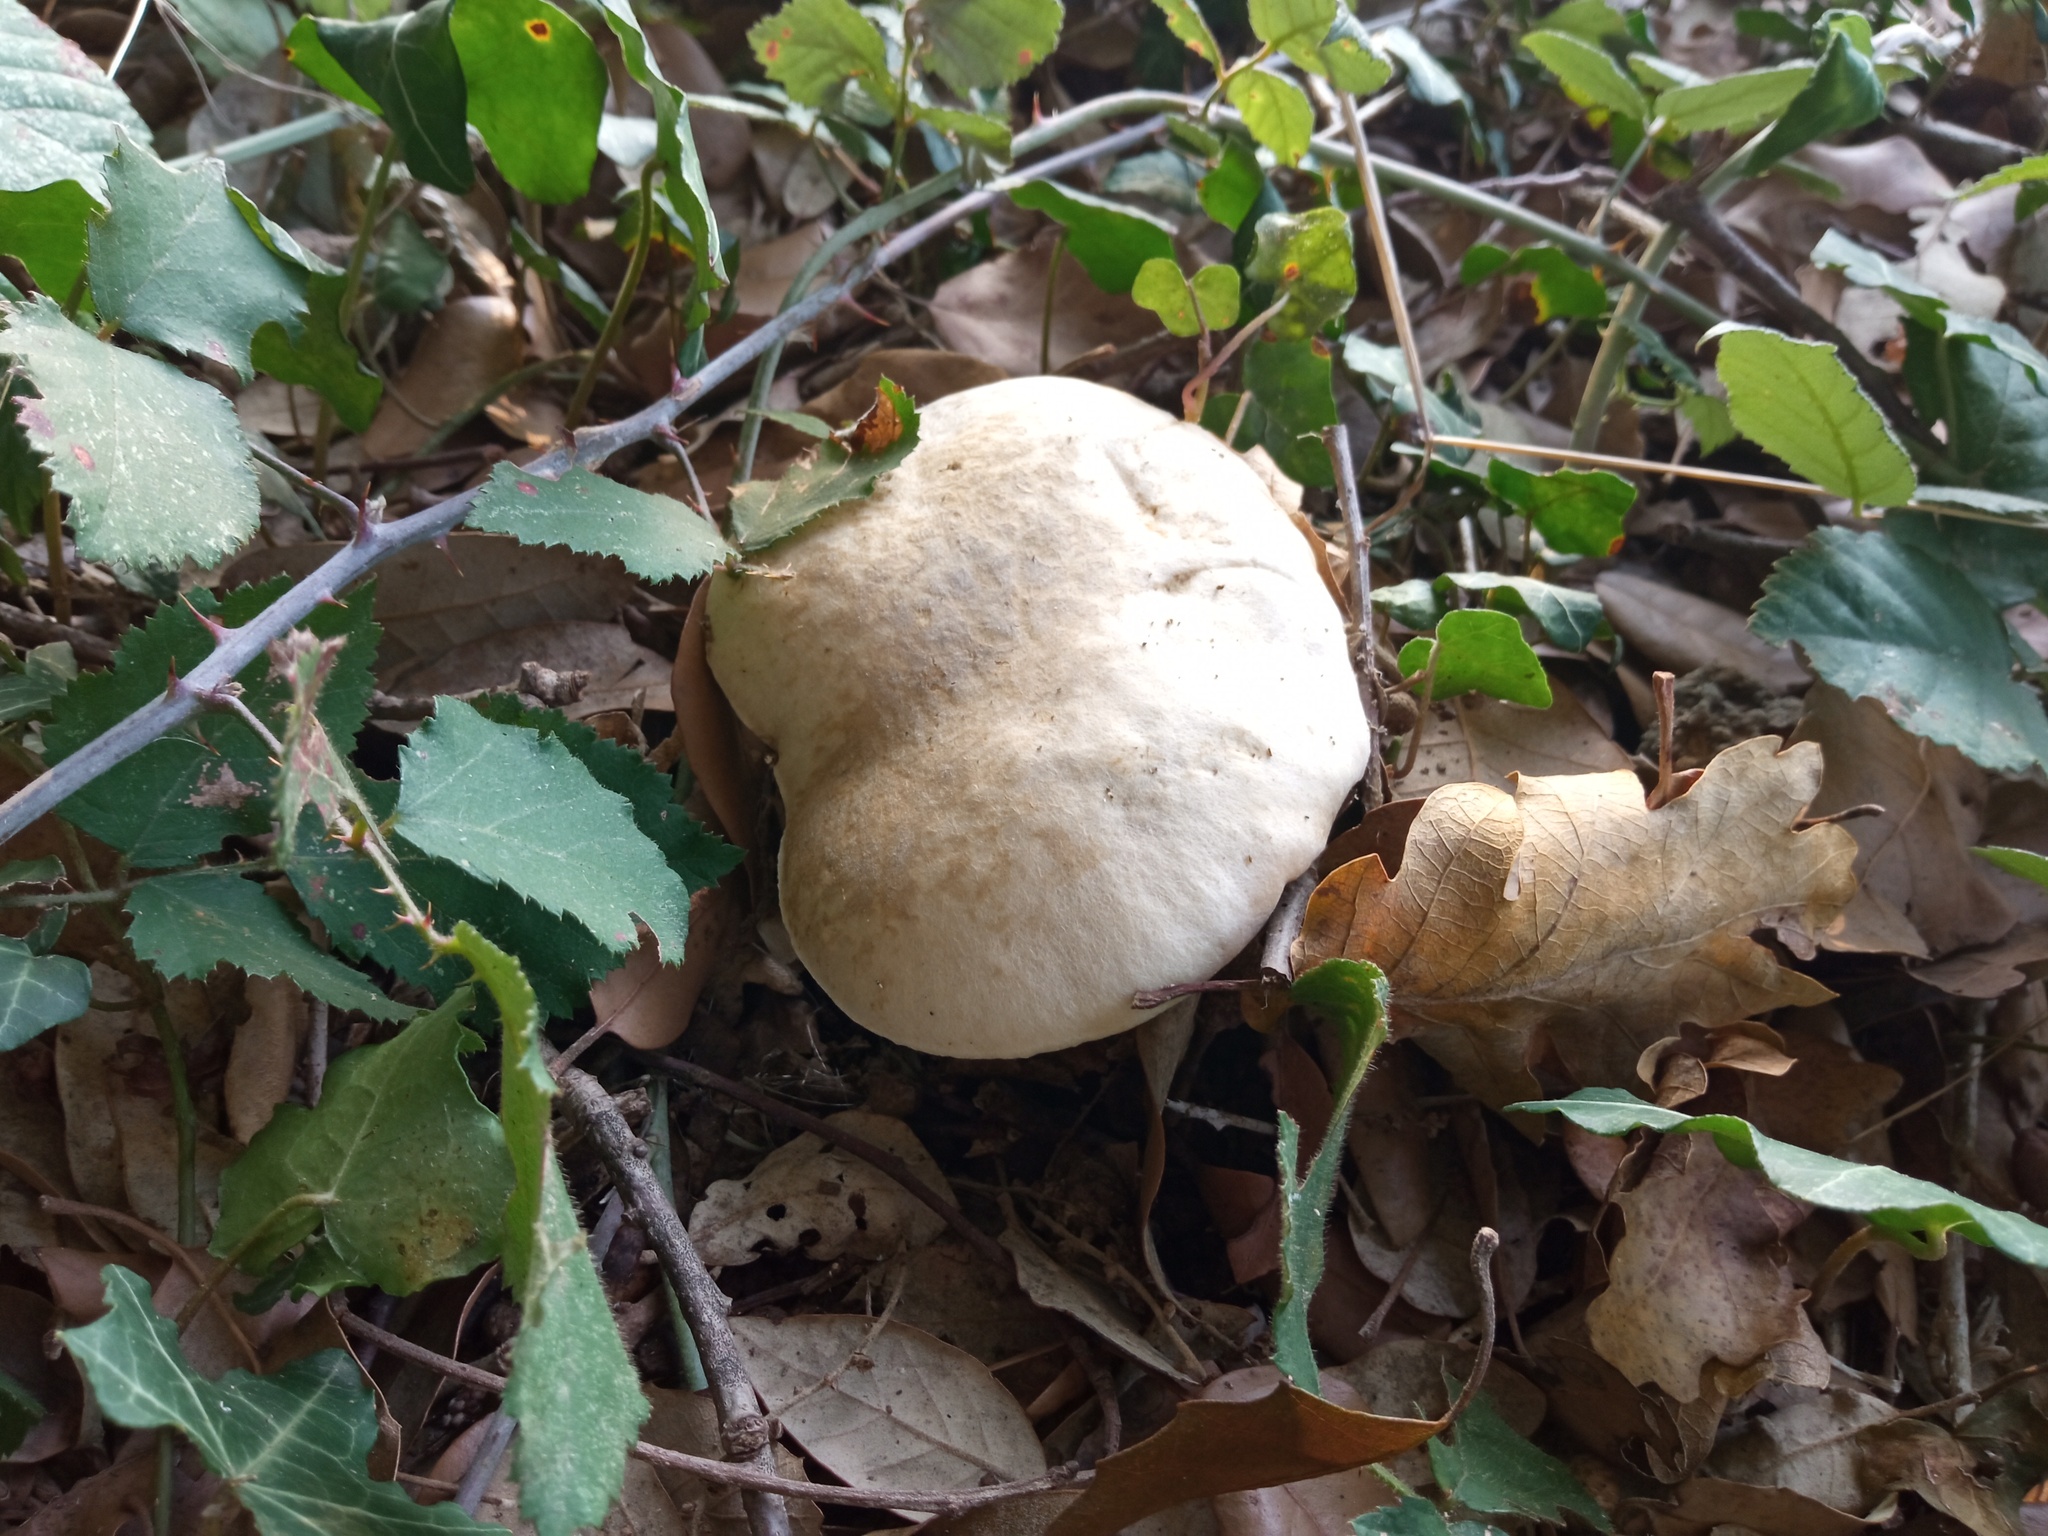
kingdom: Fungi
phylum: Basidiomycota
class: Agaricomycetes
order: Boletales
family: Boletaceae
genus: Caloboletus
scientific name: Caloboletus radicans
